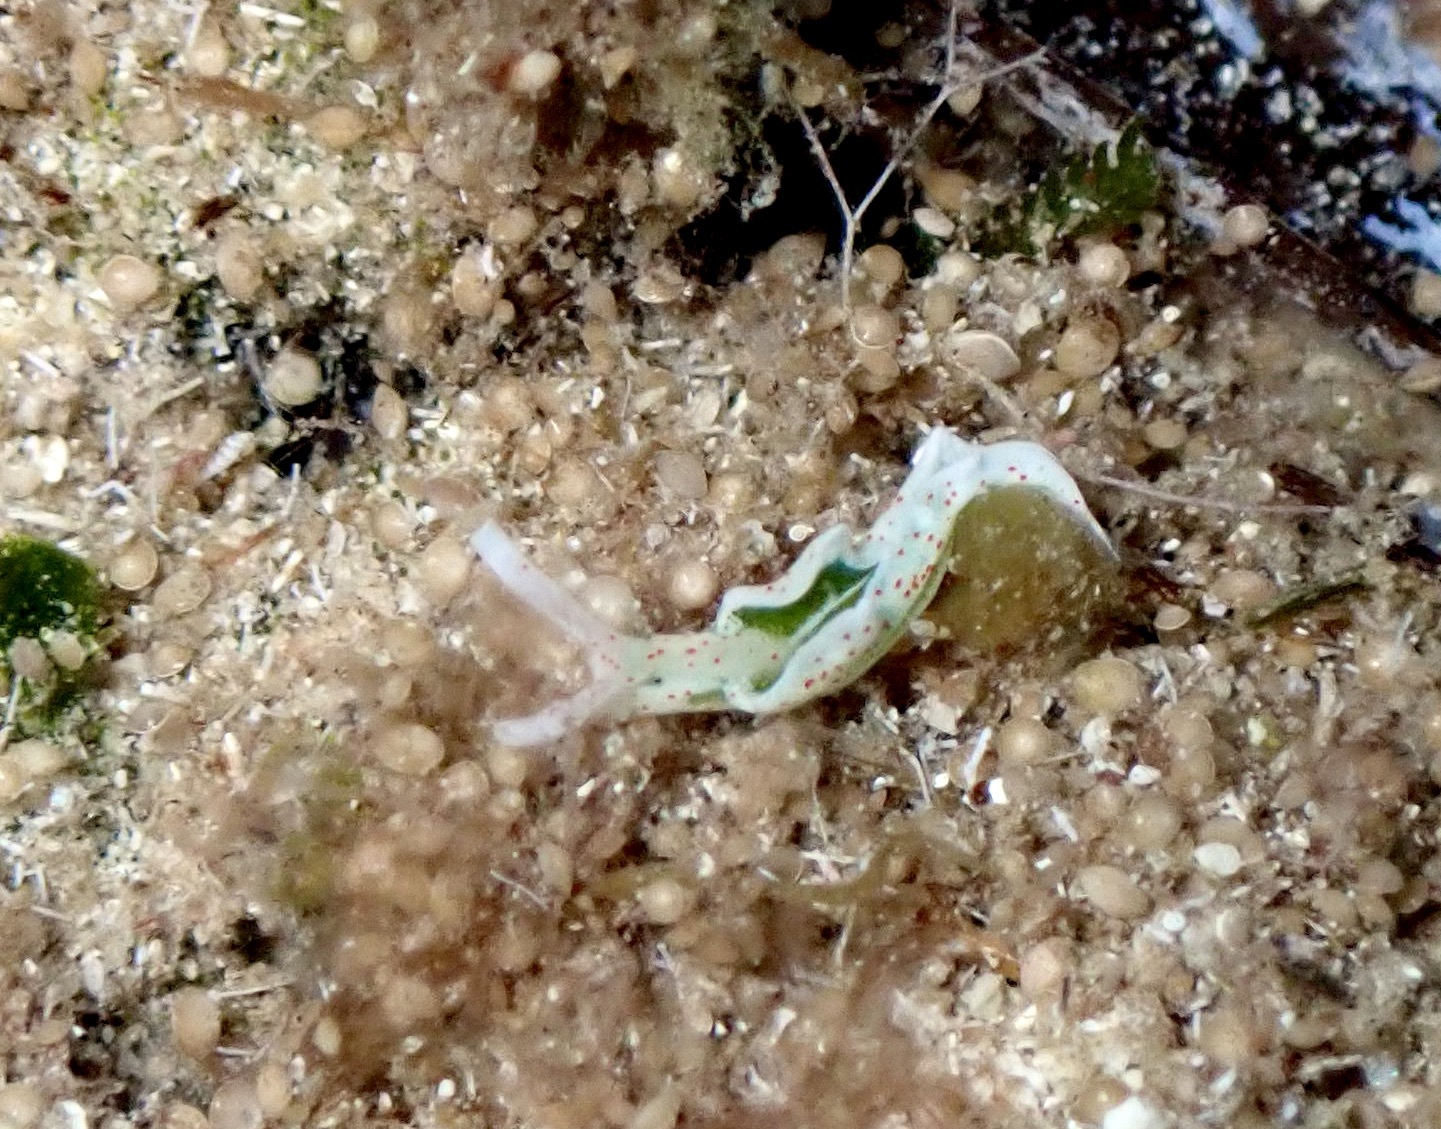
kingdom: Animalia
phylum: Mollusca
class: Gastropoda
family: Plakobranchidae
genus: Elysia
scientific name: Elysia timida
